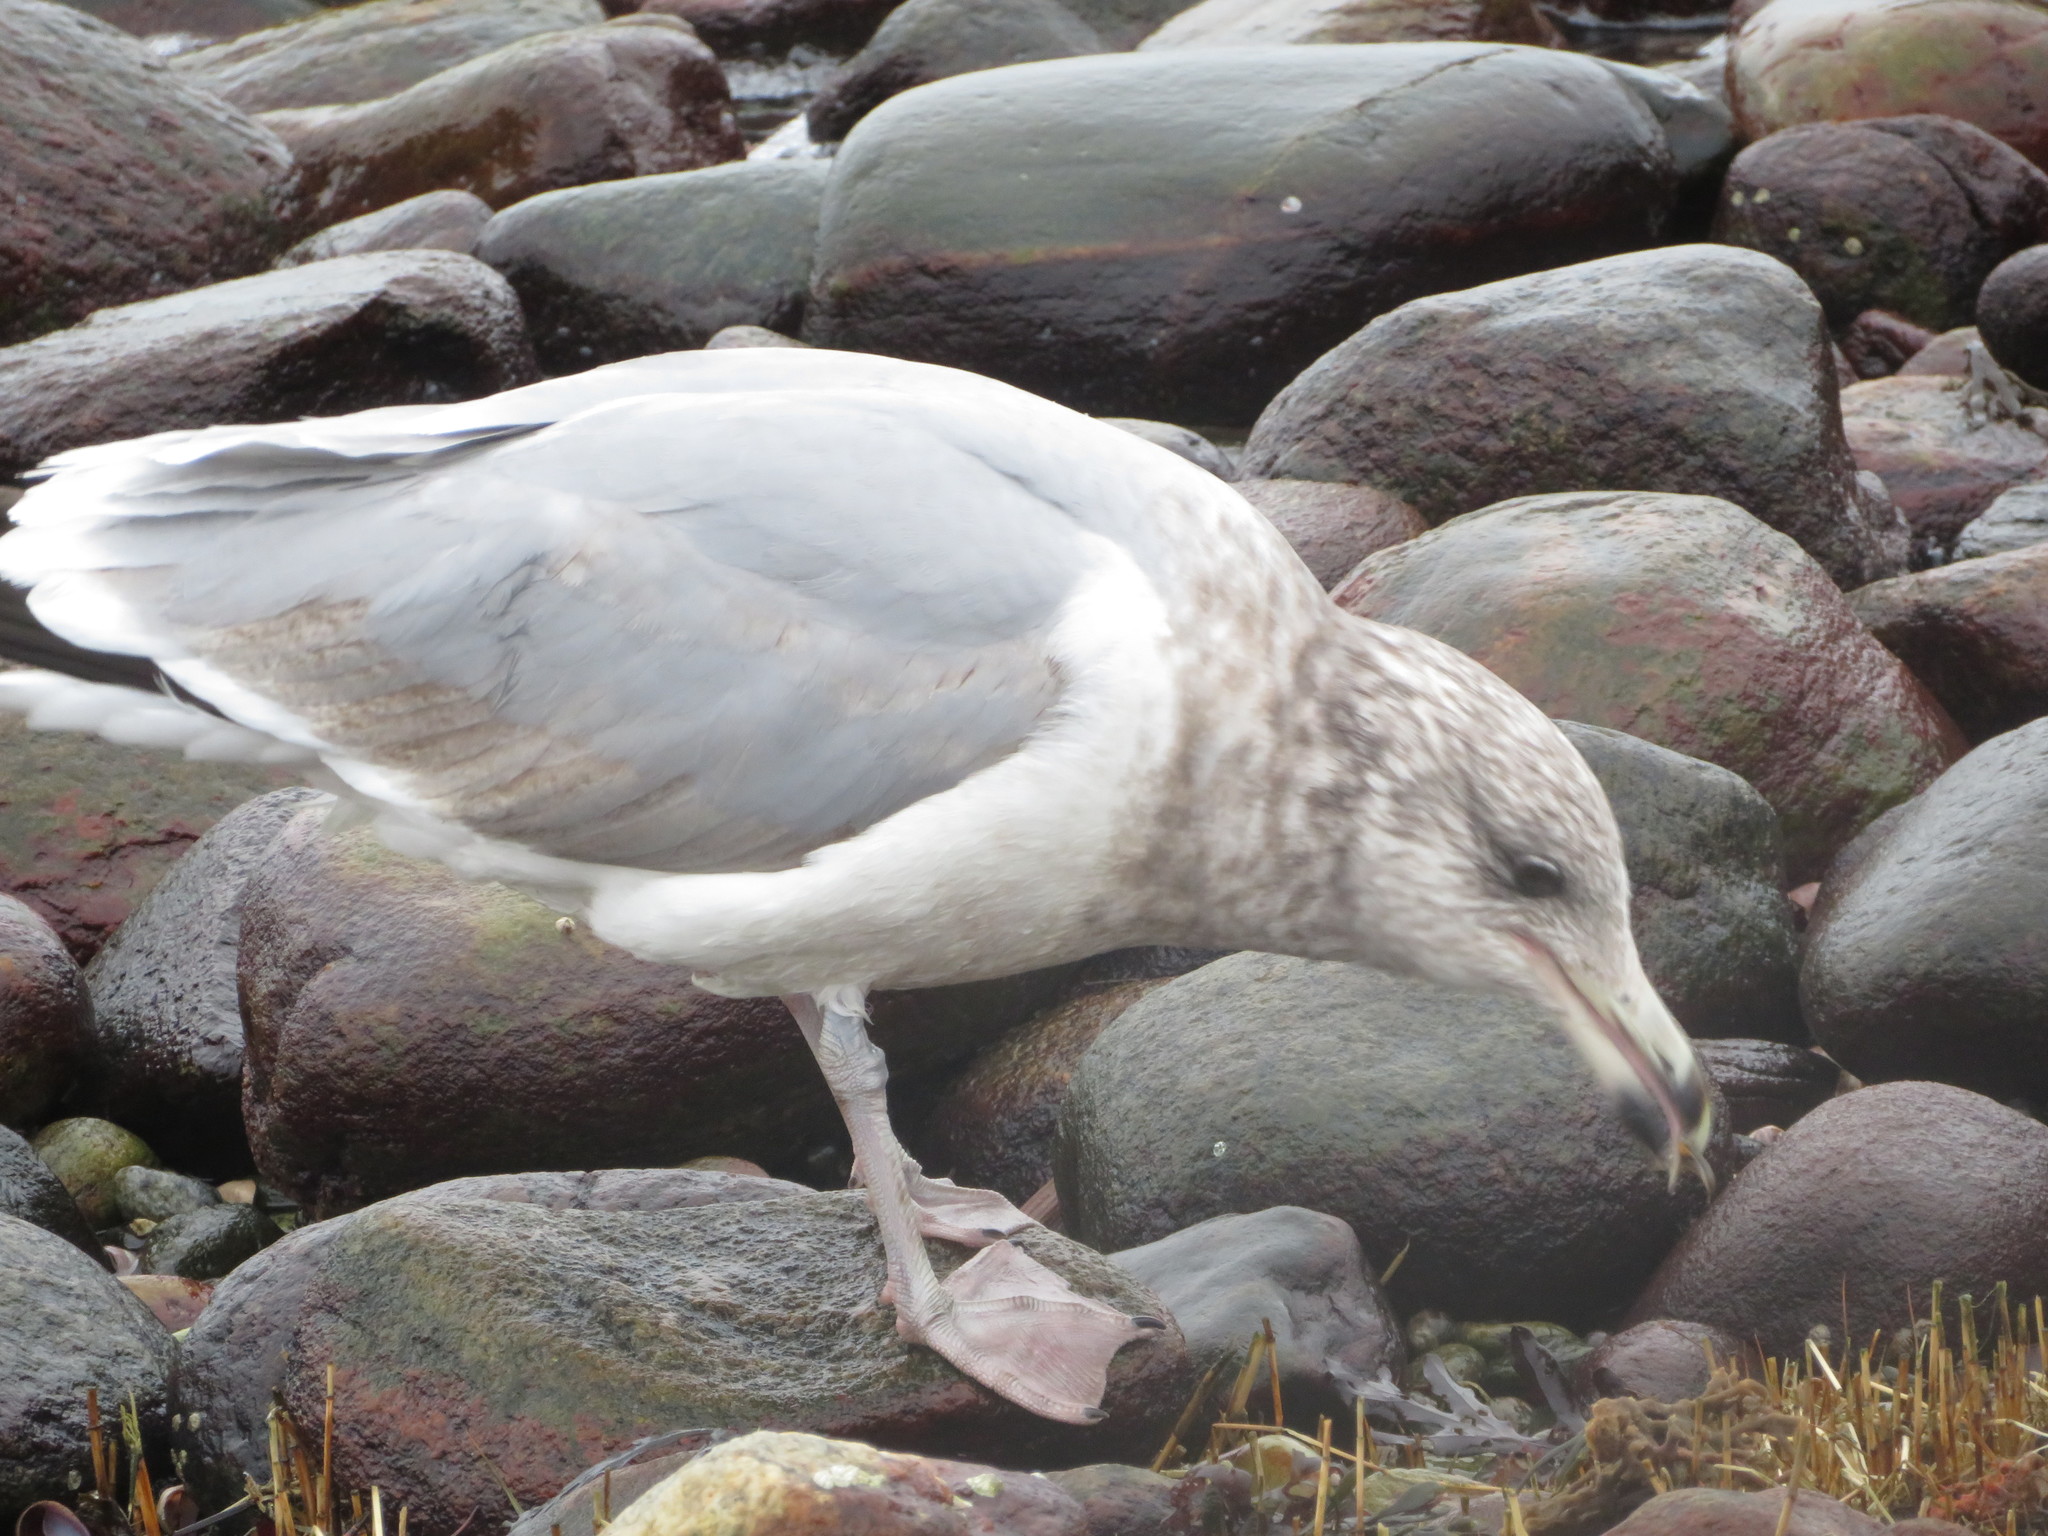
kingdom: Animalia
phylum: Chordata
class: Aves
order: Charadriiformes
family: Laridae
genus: Larus
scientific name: Larus smithsonianus
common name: American herring gull
